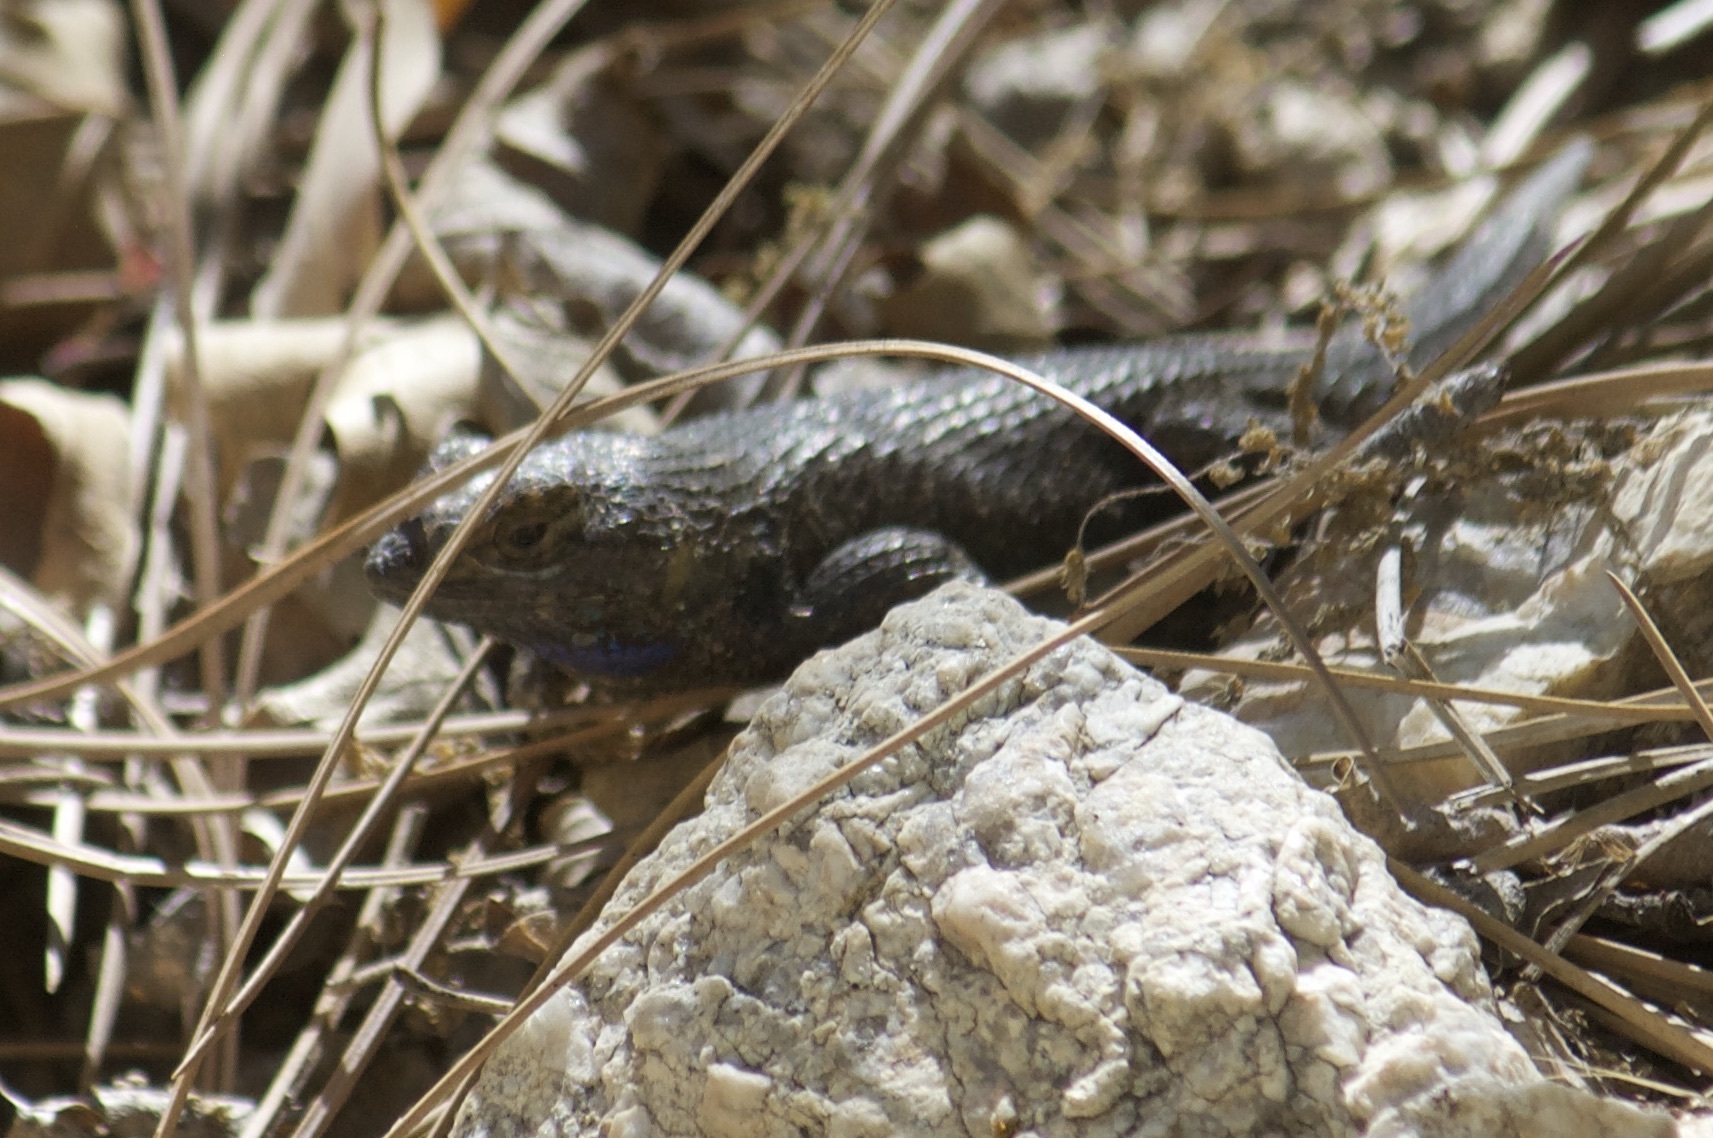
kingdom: Animalia
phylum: Chordata
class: Squamata
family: Phrynosomatidae
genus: Sceloporus
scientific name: Sceloporus occidentalis
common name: Western fence lizard
